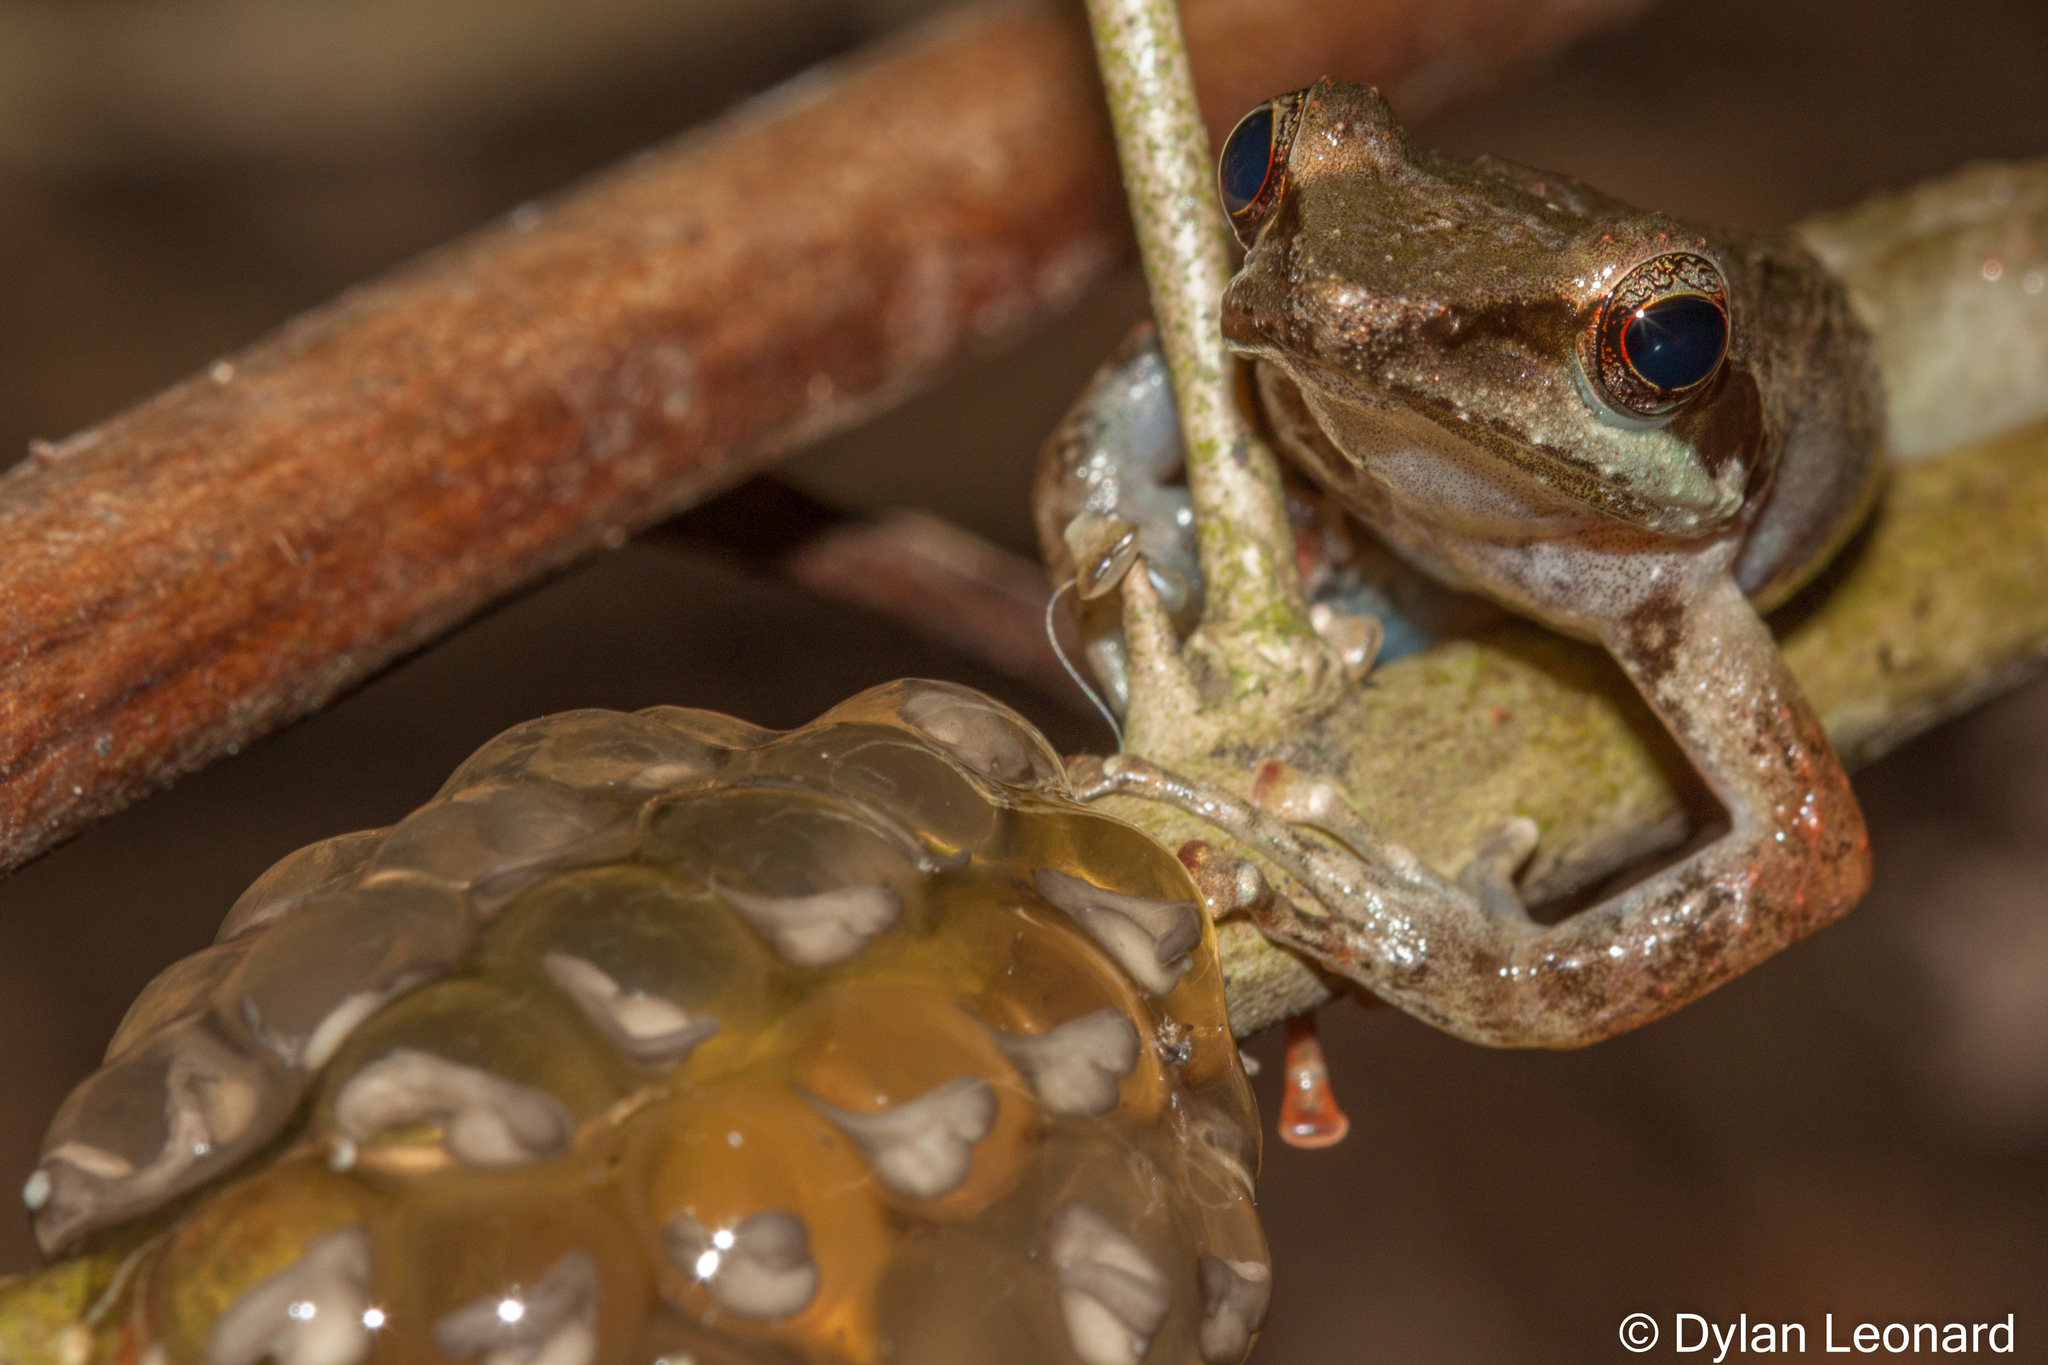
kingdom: Animalia
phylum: Chordata
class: Amphibia
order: Anura
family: Pyxicephalidae
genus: Natalobatrachus
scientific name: Natalobatrachus bonebergi
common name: Natal diving frog
